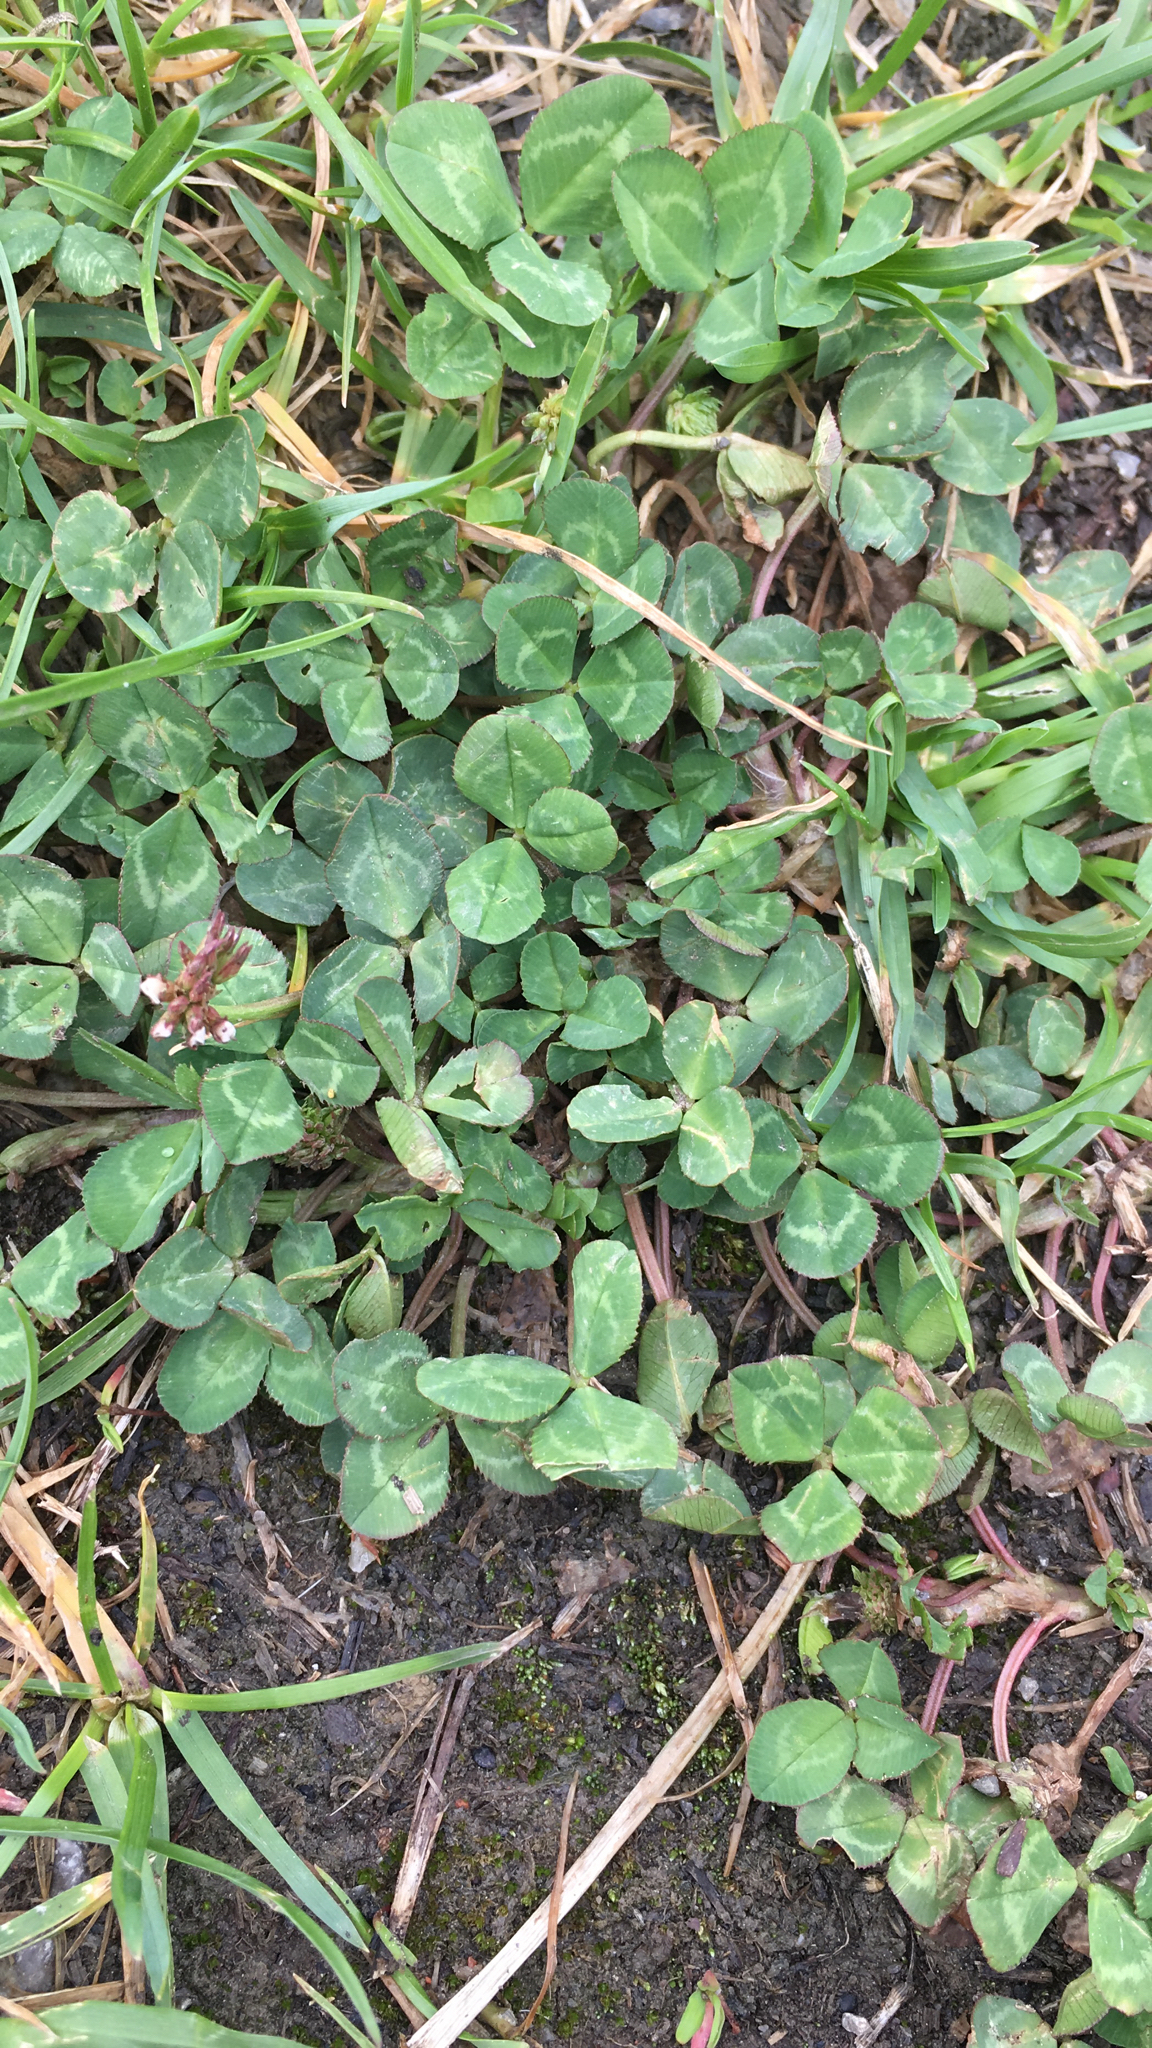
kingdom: Plantae
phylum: Tracheophyta
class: Magnoliopsida
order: Fabales
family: Fabaceae
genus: Trifolium
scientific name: Trifolium repens
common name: White clover
